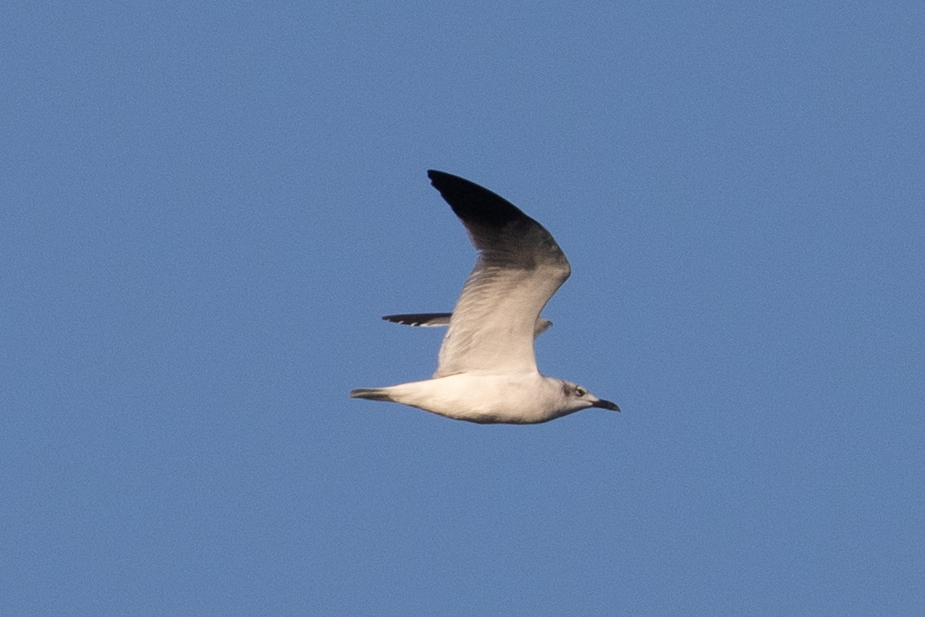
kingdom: Animalia
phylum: Chordata
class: Aves
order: Charadriiformes
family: Laridae
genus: Leucophaeus
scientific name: Leucophaeus atricilla
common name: Laughing gull
